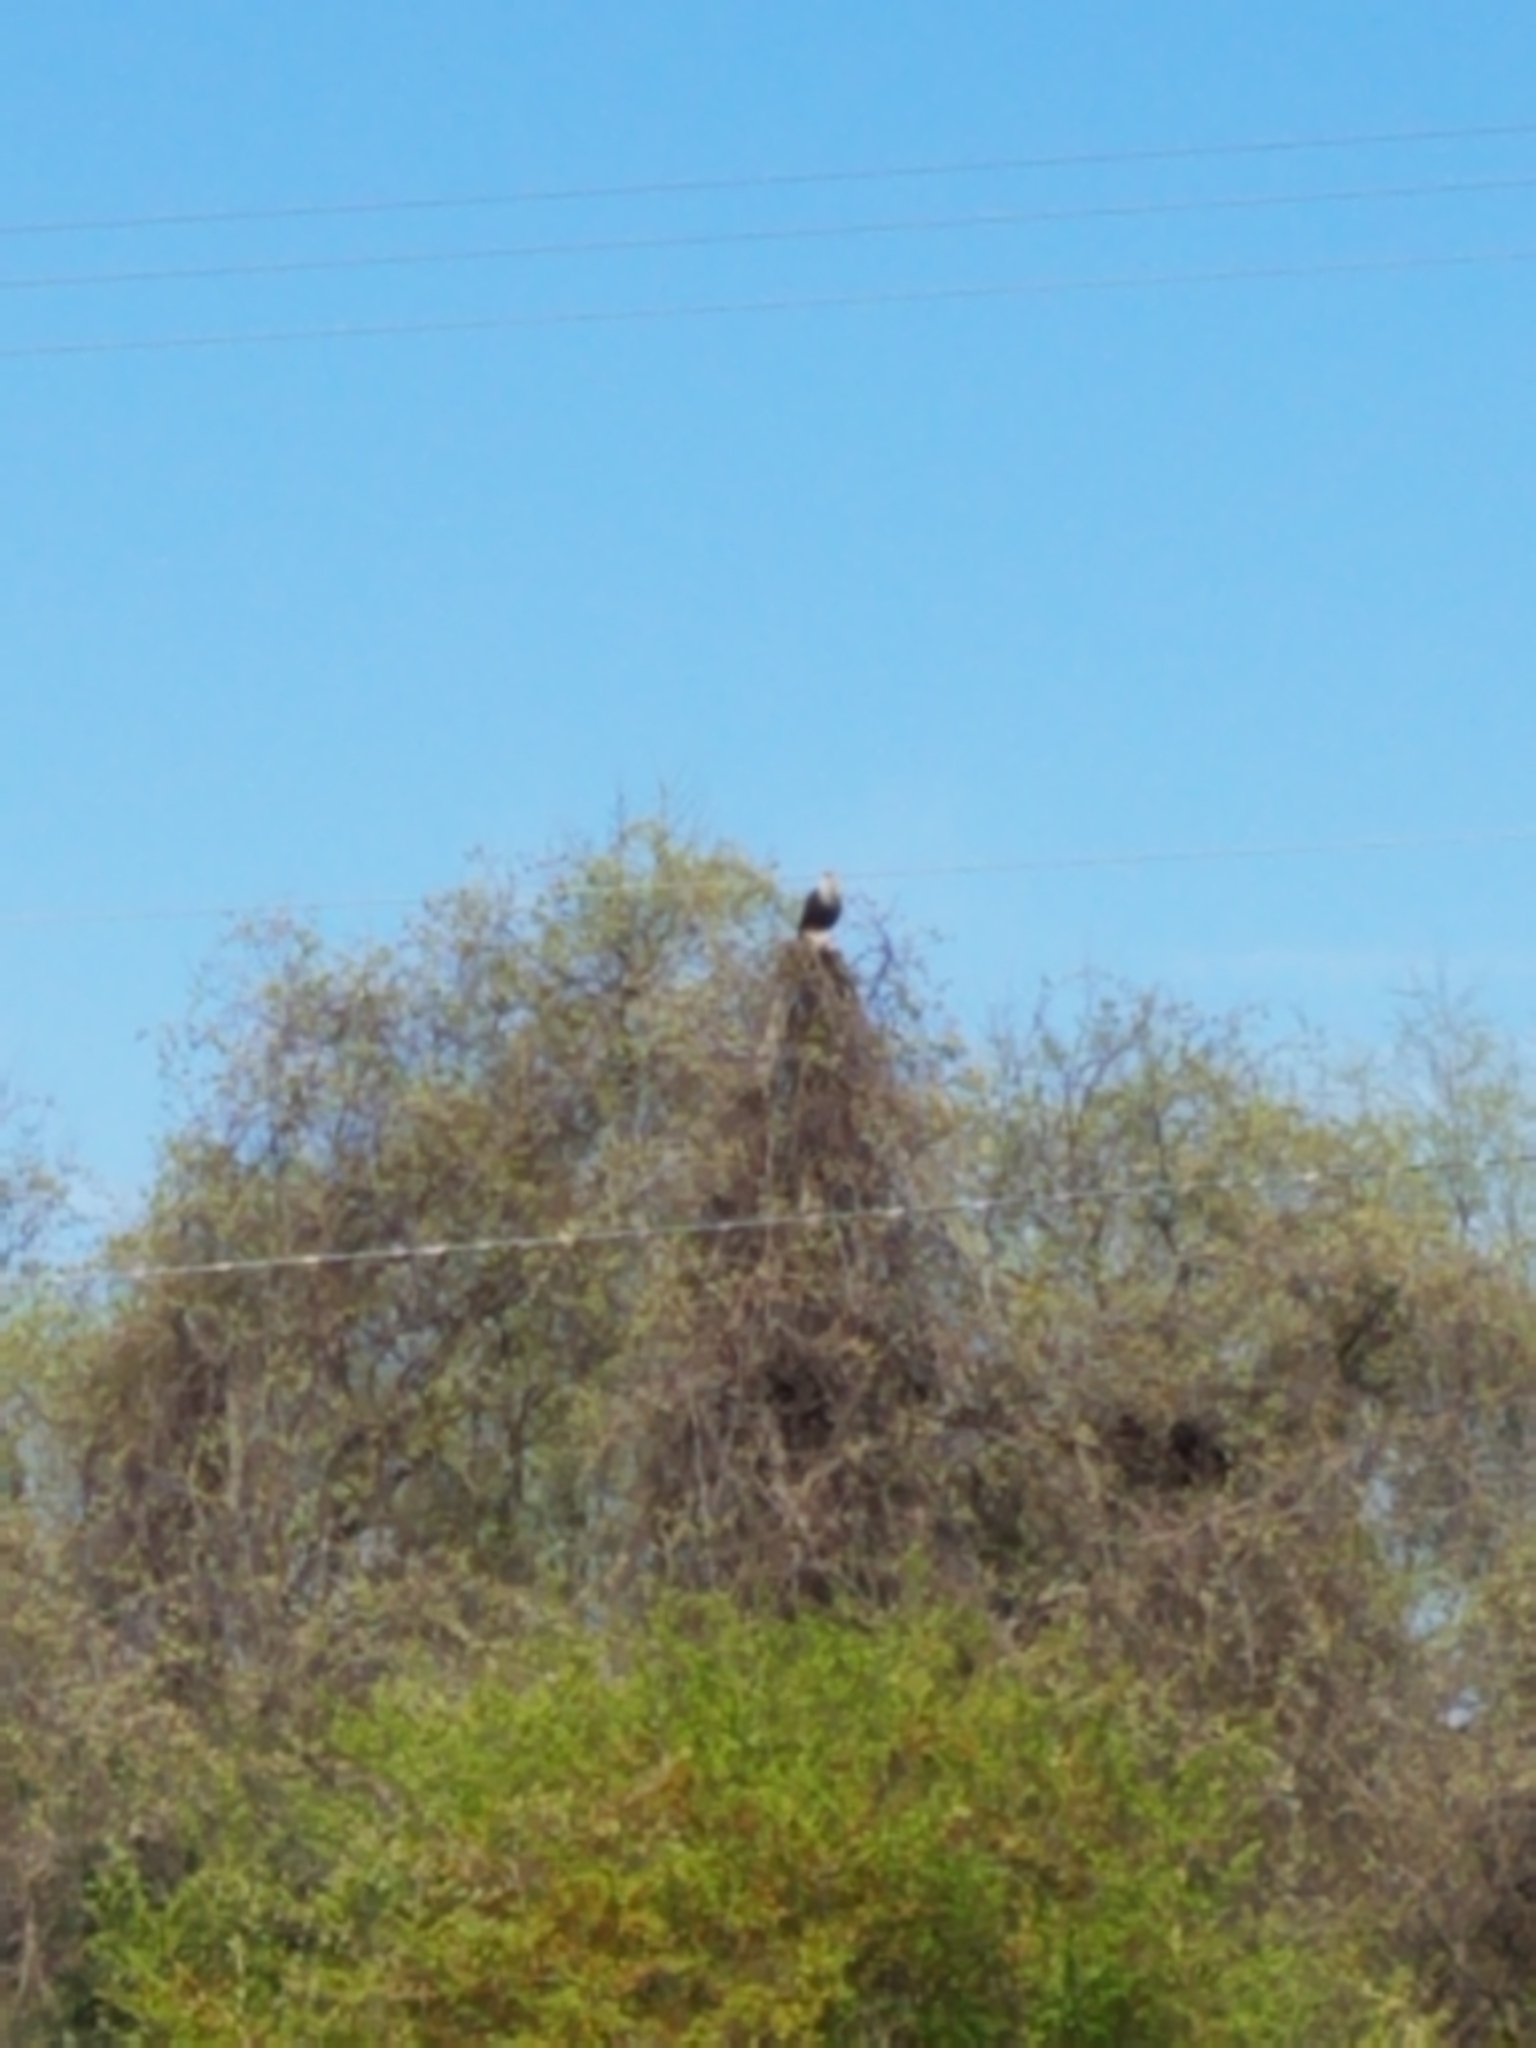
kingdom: Animalia
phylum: Chordata
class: Aves
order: Falconiformes
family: Falconidae
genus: Caracara
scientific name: Caracara plancus
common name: Southern caracara
